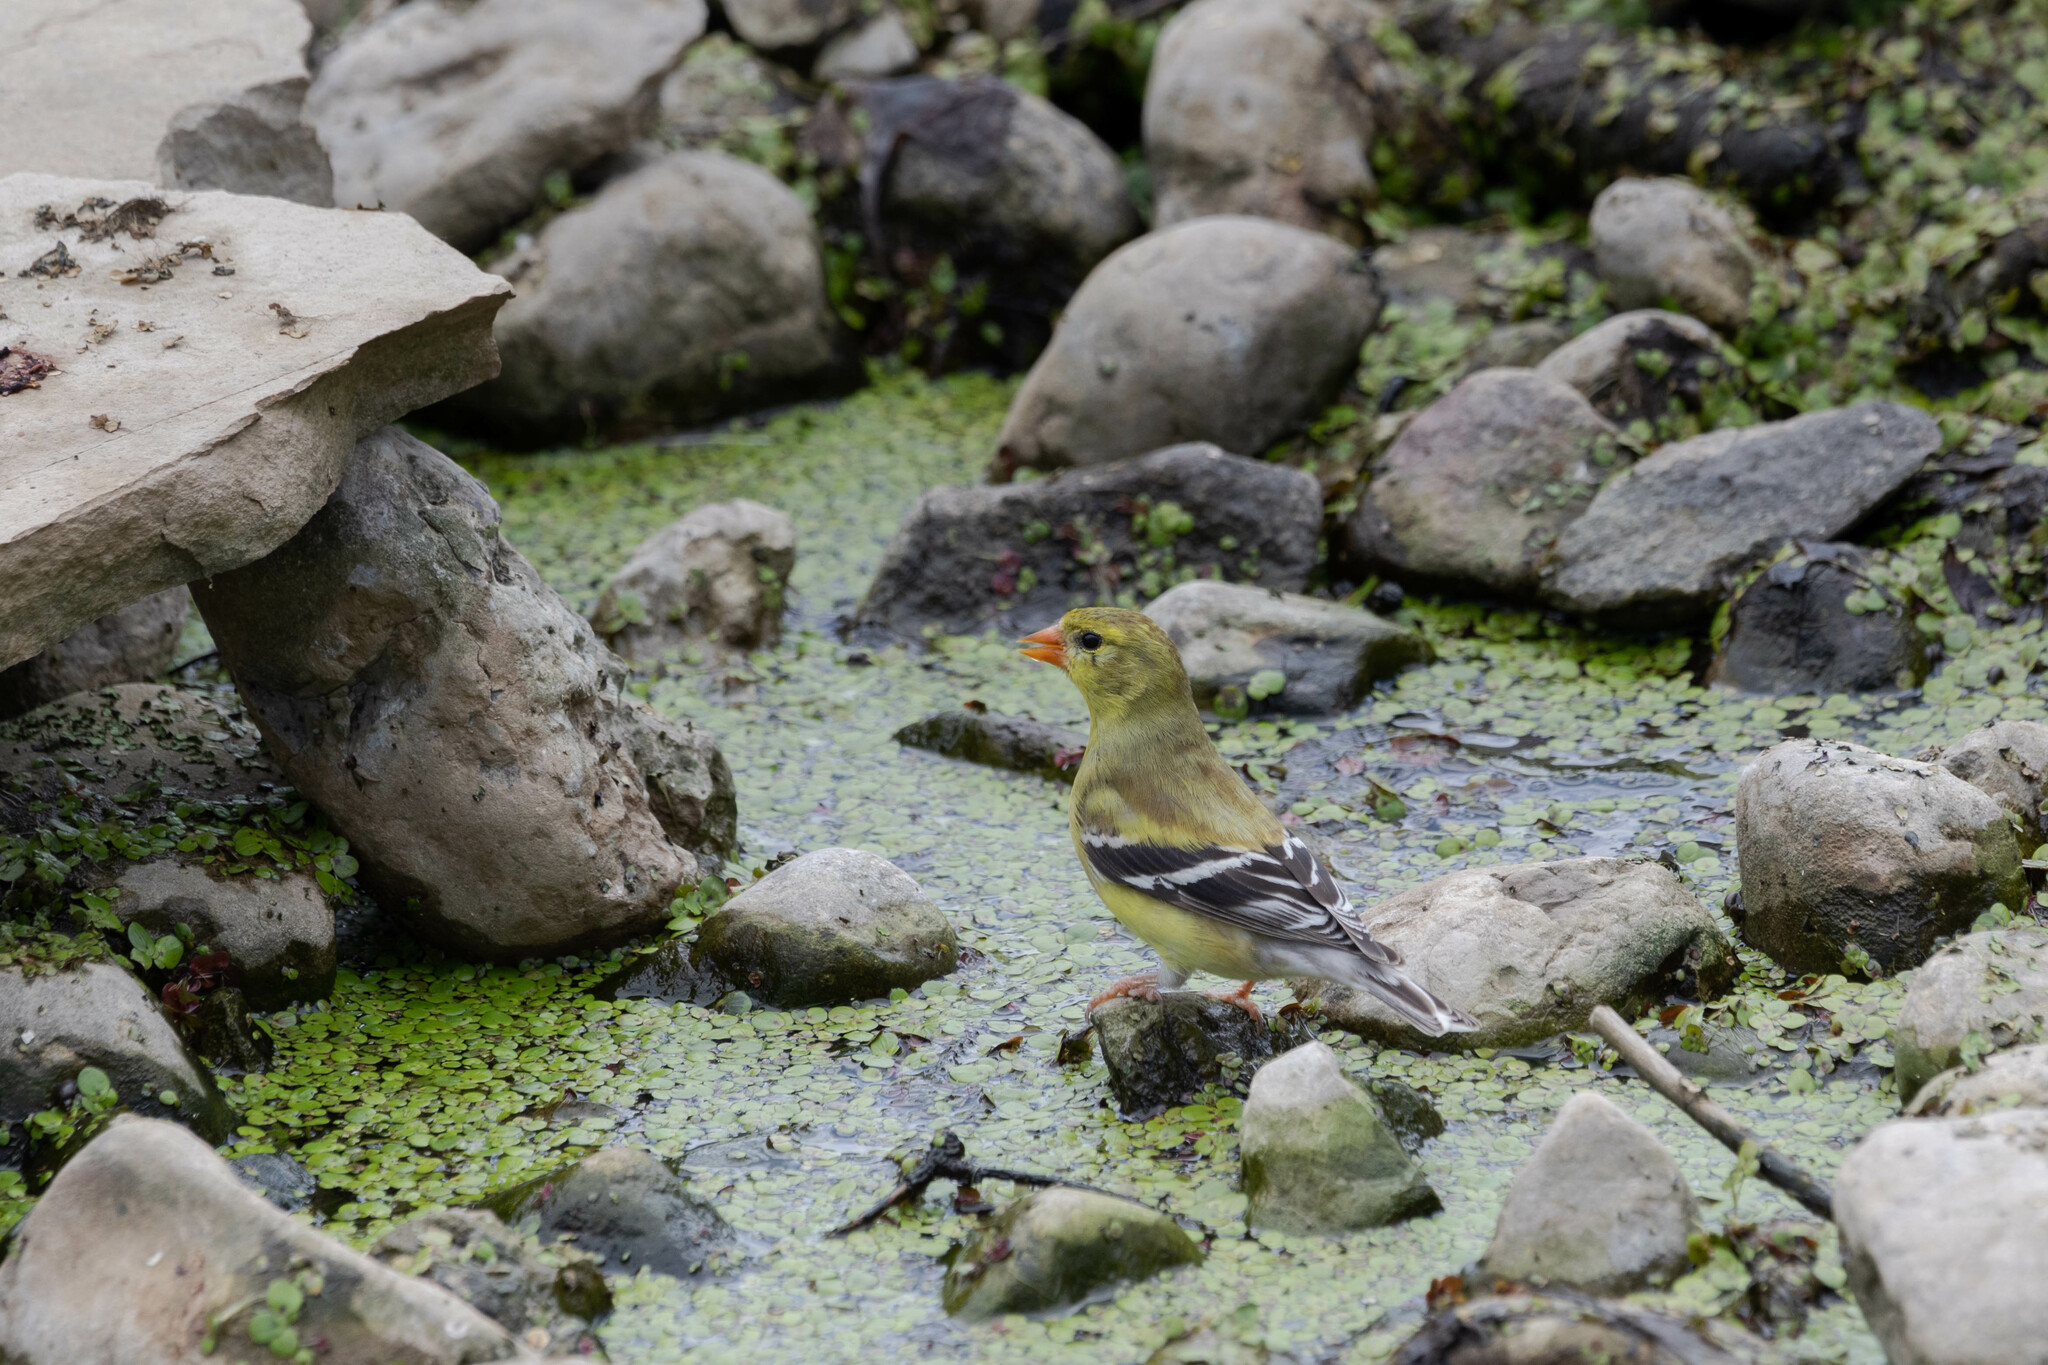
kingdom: Animalia
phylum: Chordata
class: Aves
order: Passeriformes
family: Fringillidae
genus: Spinus
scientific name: Spinus tristis
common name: American goldfinch
